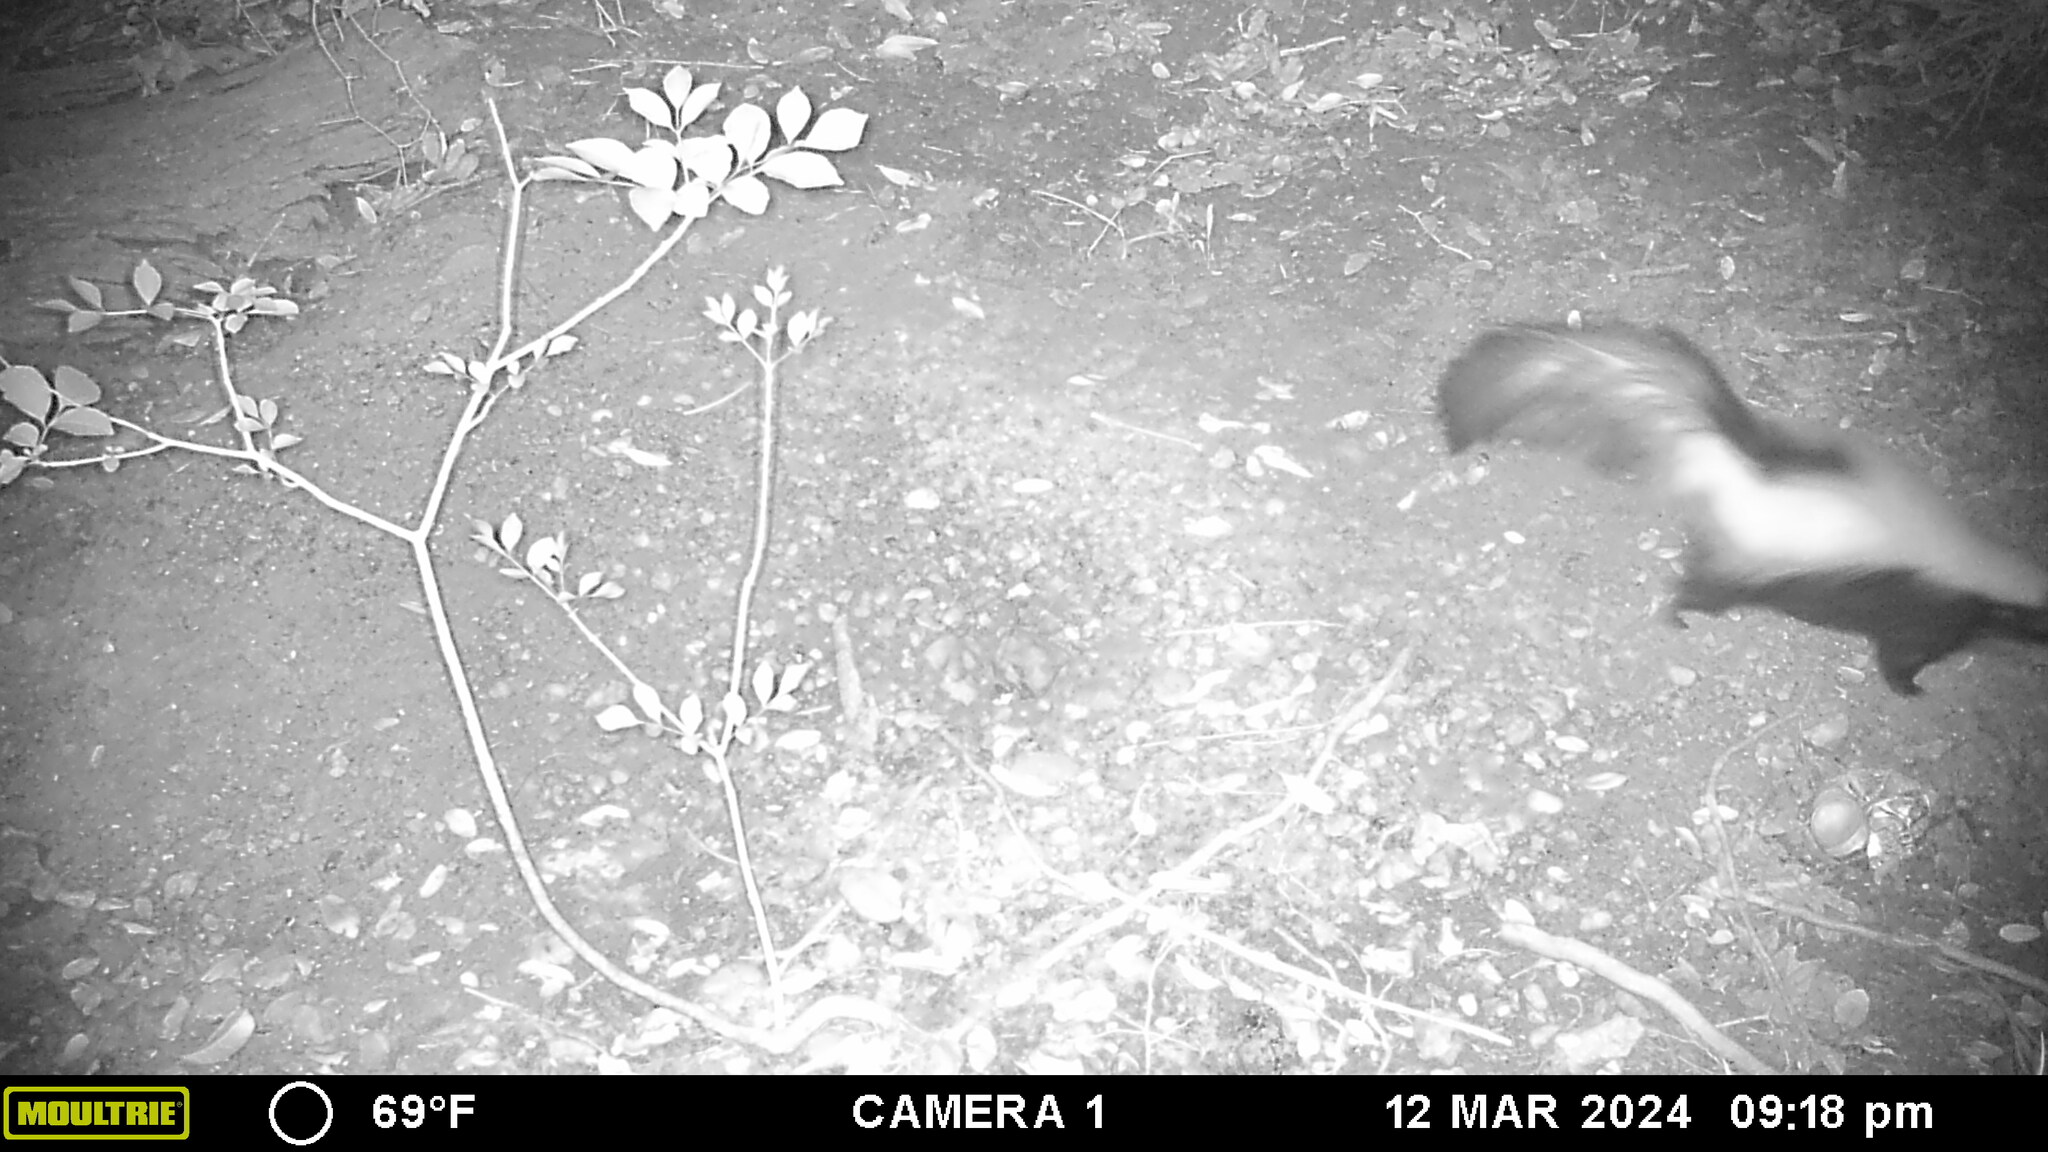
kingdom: Animalia
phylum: Chordata
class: Mammalia
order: Carnivora
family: Mephitidae
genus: Mephitis
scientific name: Mephitis mephitis
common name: Striped skunk
